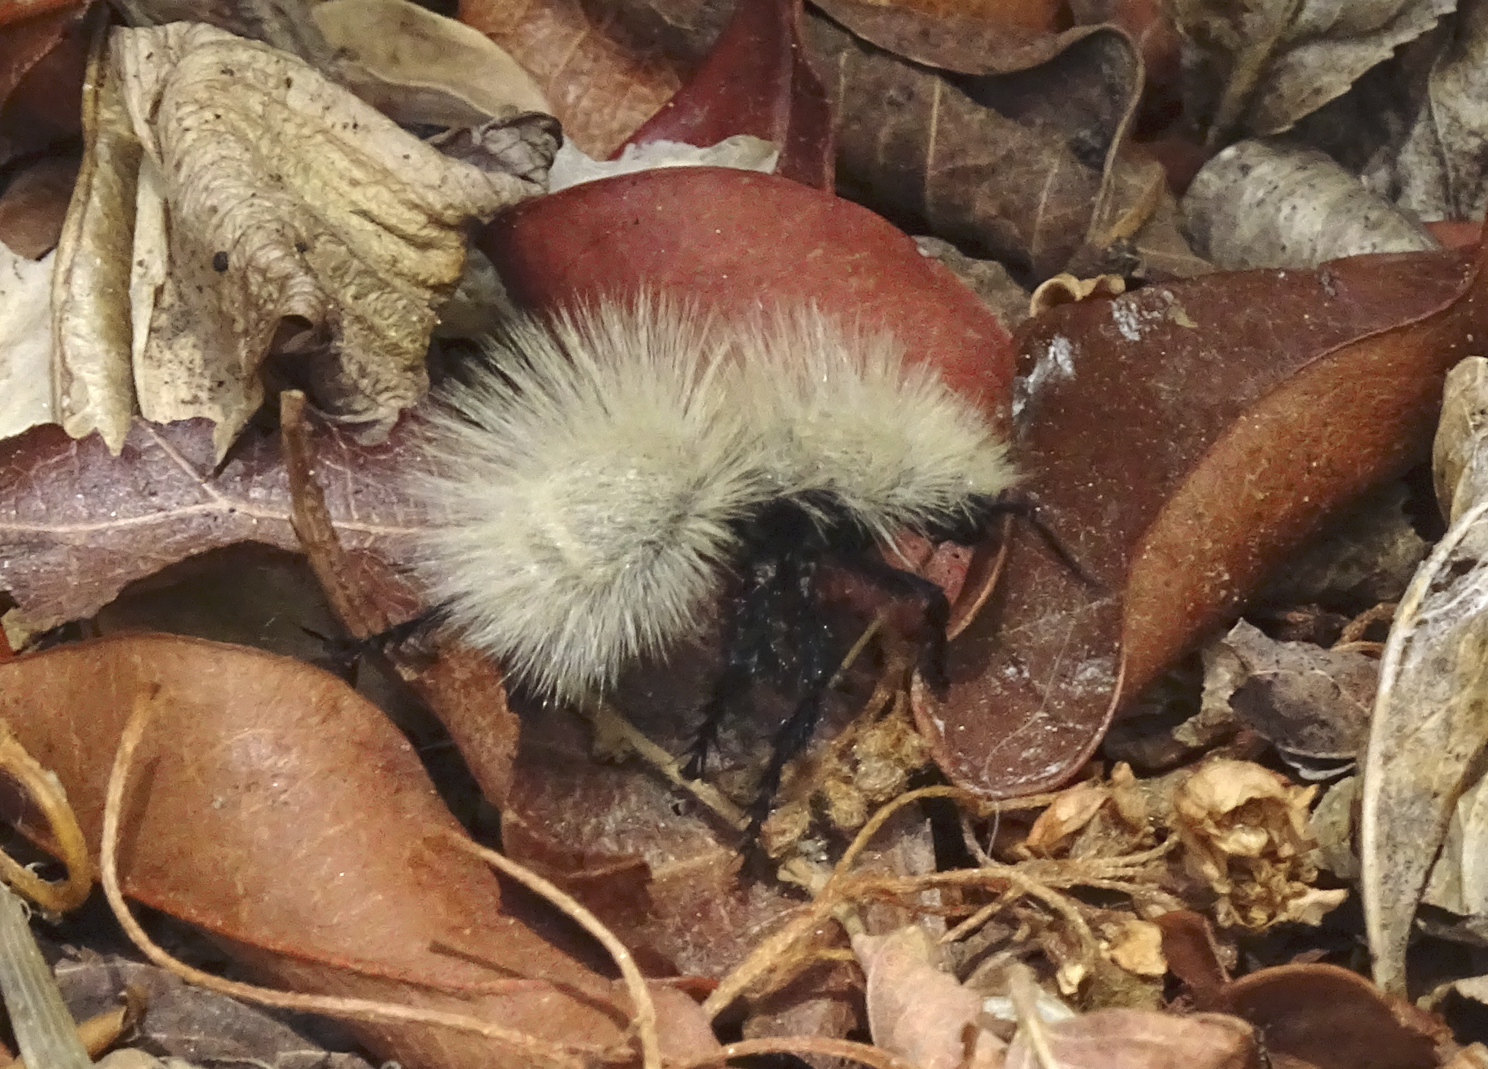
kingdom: Animalia
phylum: Arthropoda
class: Insecta
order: Hymenoptera
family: Mutillidae
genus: Dasymutilla
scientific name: Dasymutilla
